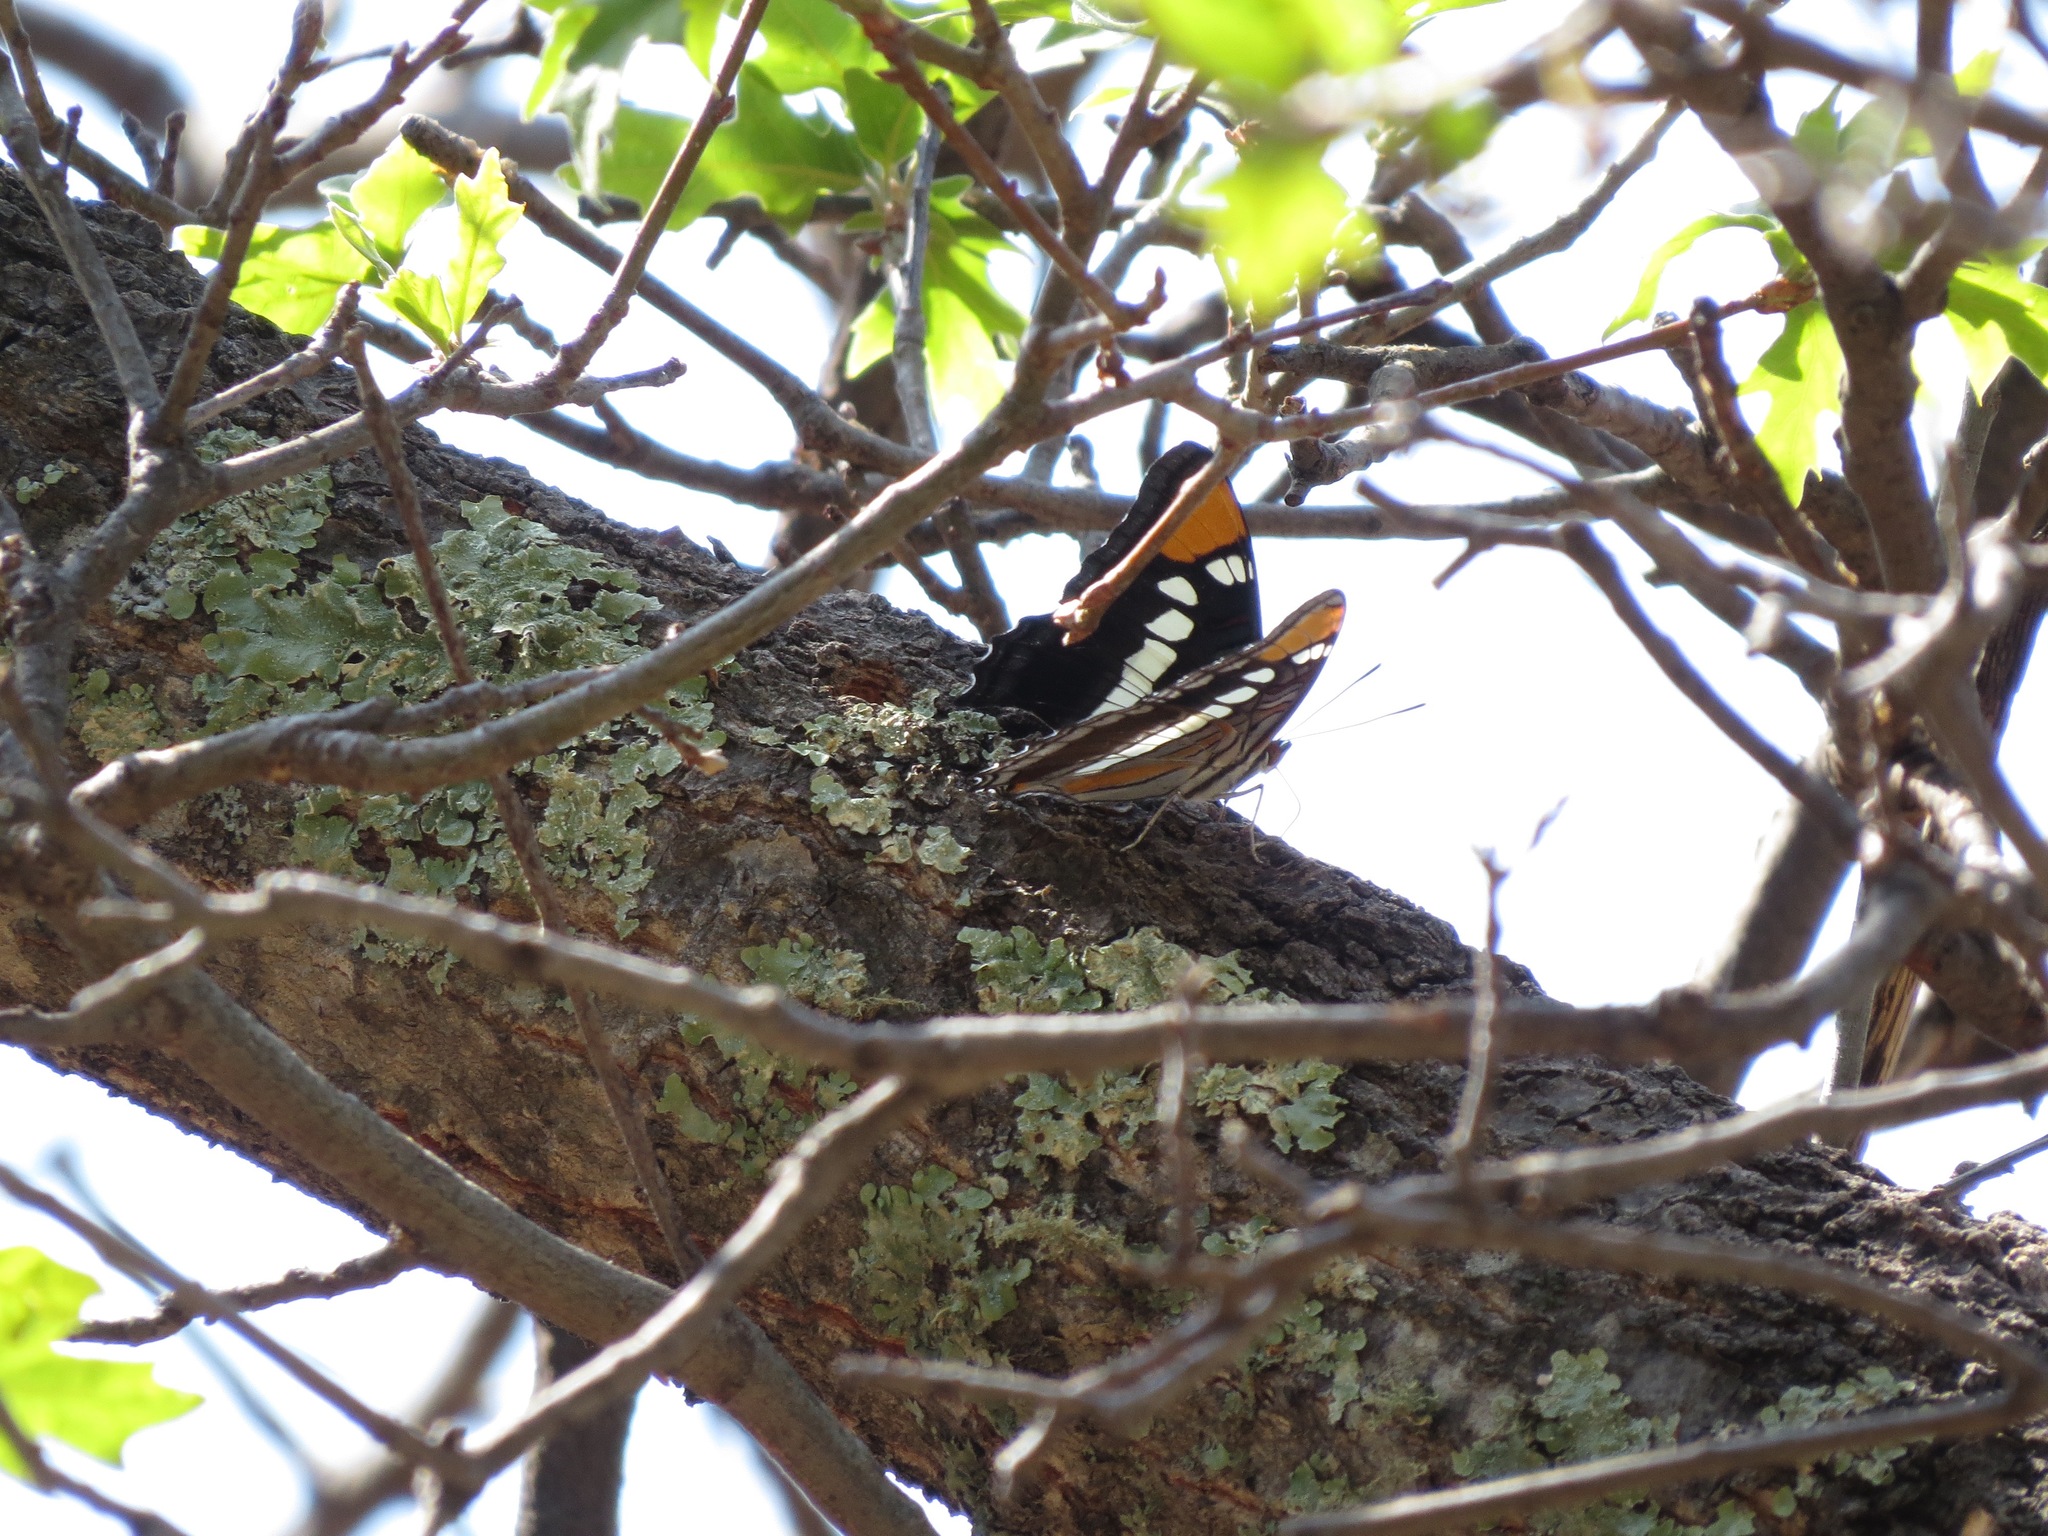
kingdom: Animalia
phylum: Arthropoda
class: Insecta
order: Lepidoptera
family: Nymphalidae
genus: Limenitis
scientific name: Limenitis bredowii
